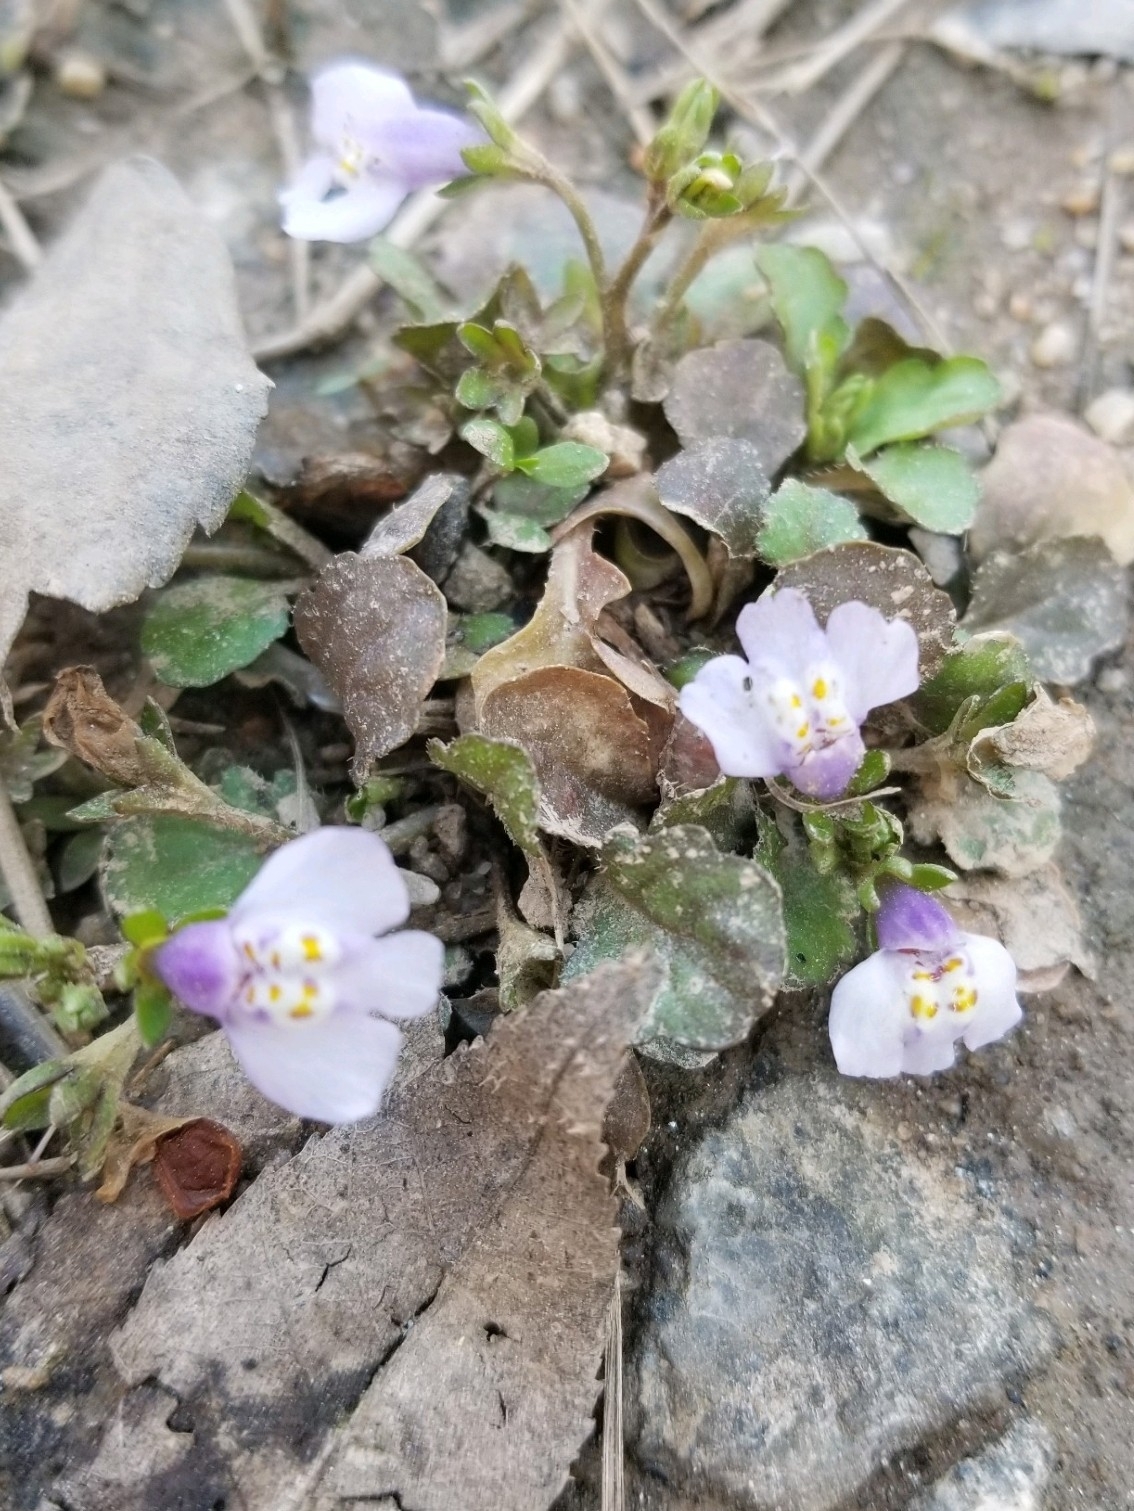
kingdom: Plantae
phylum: Tracheophyta
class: Magnoliopsida
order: Lamiales
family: Mazaceae
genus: Mazus
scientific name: Mazus pumilus
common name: Japanese mazus
